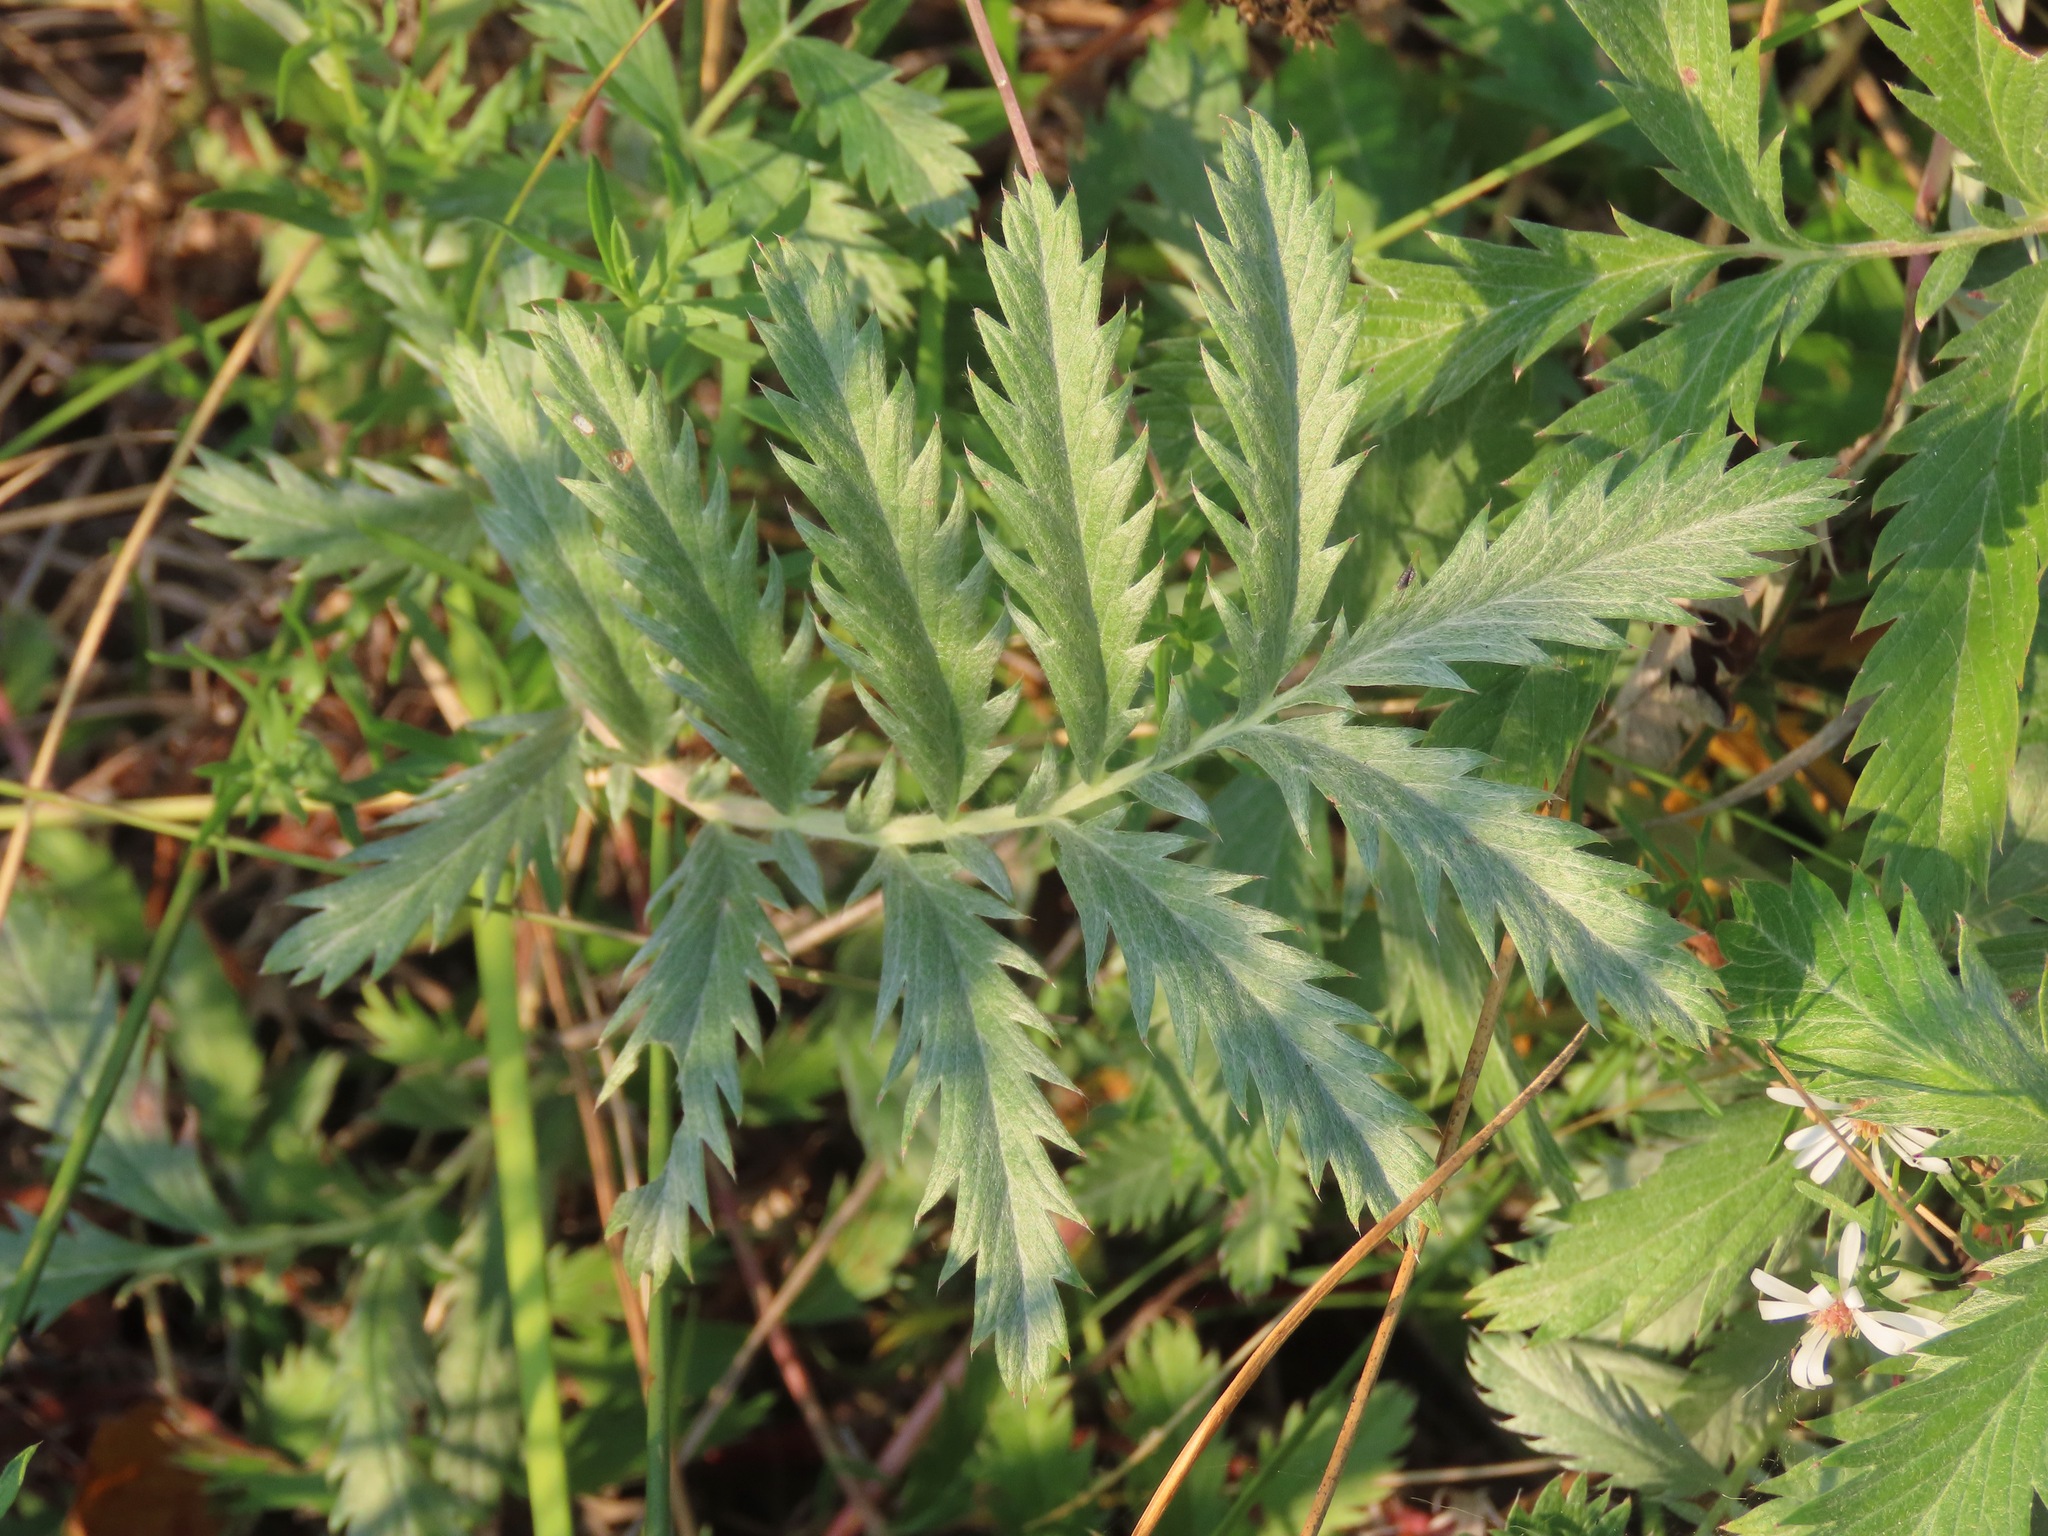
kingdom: Plantae
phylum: Tracheophyta
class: Magnoliopsida
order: Rosales
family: Rosaceae
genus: Argentina
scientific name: Argentina anserina
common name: Common silverweed
